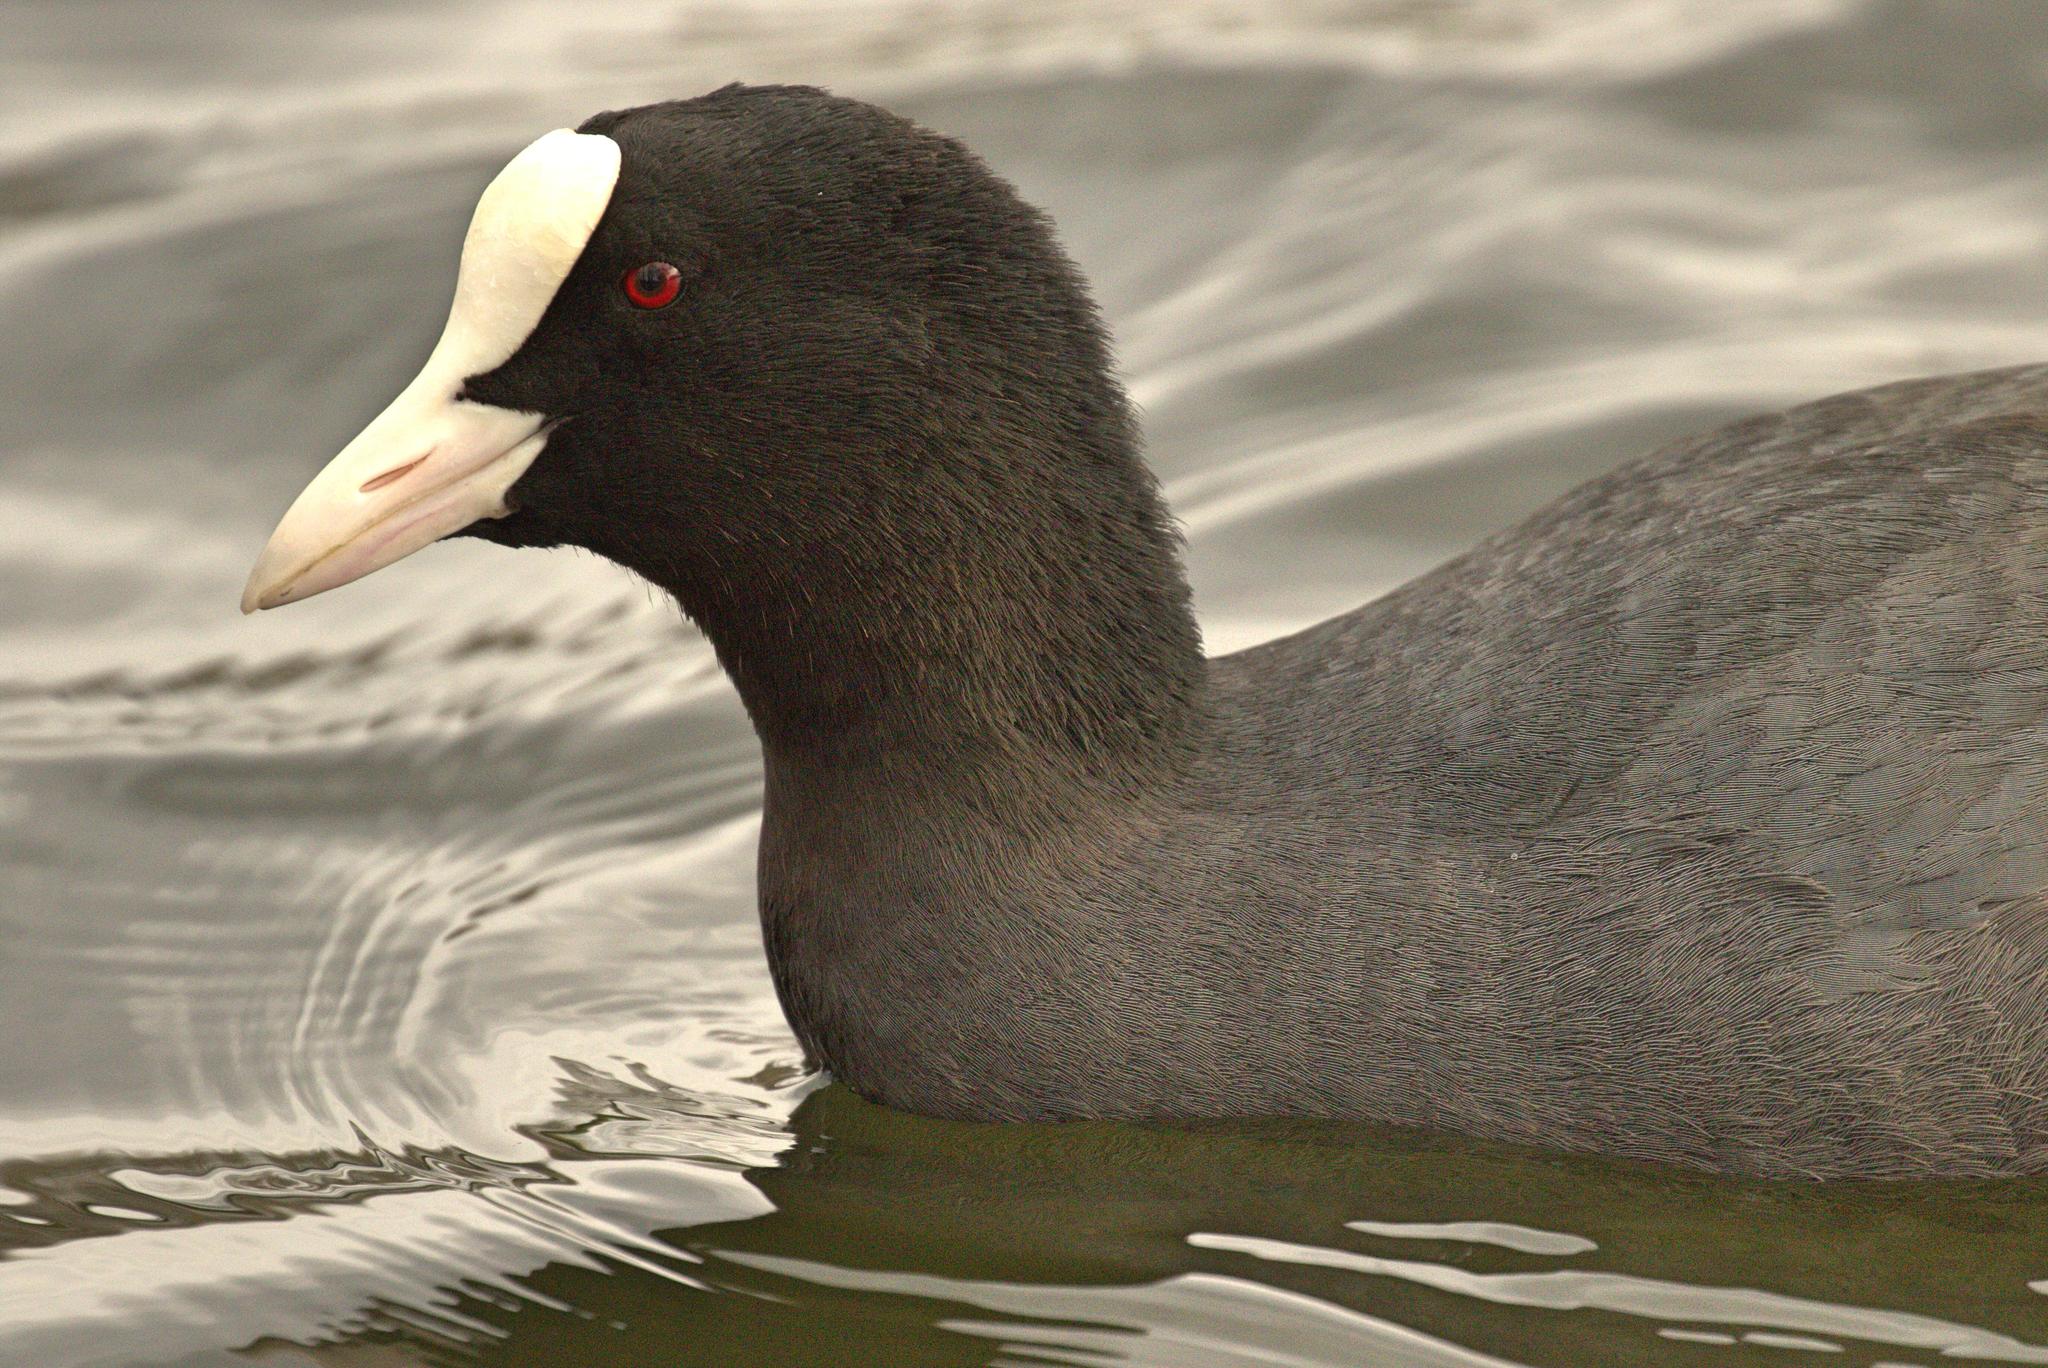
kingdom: Animalia
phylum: Chordata
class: Aves
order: Gruiformes
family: Rallidae
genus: Fulica
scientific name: Fulica atra
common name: Eurasian coot
